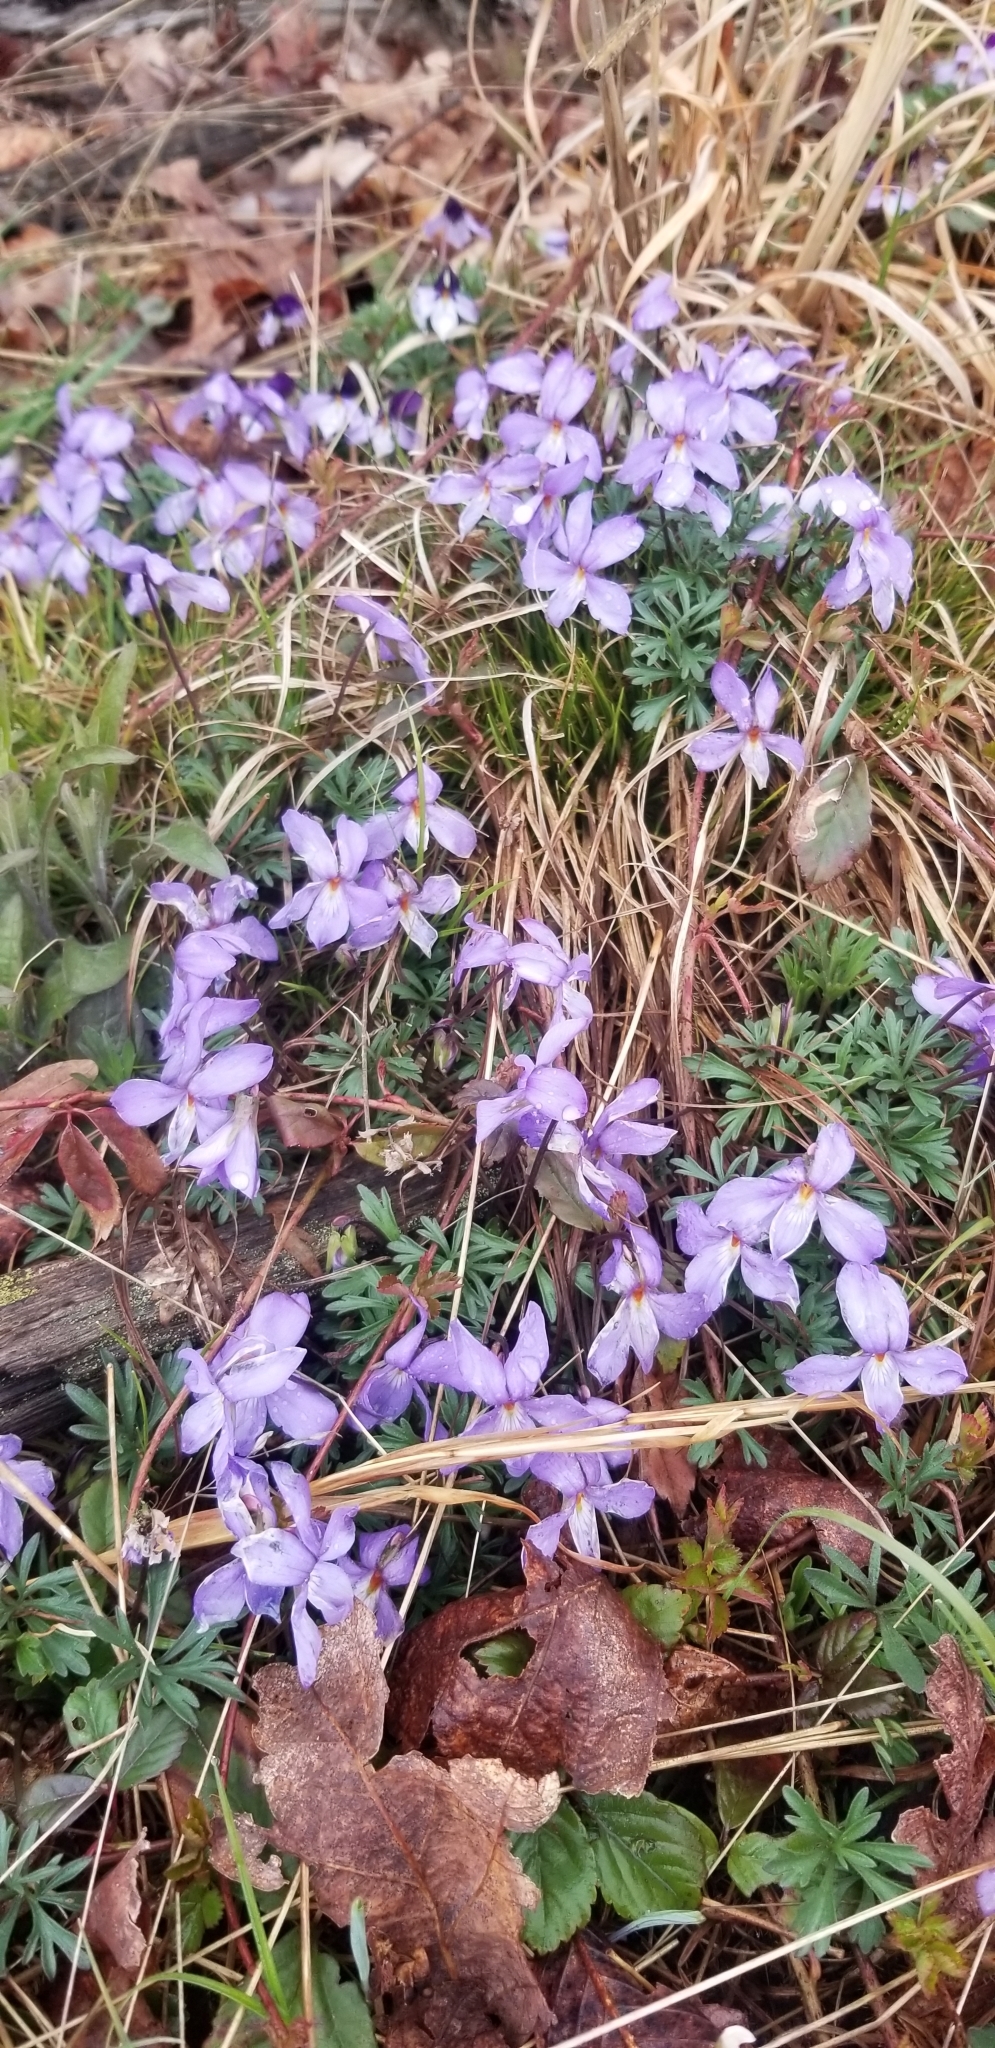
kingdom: Plantae
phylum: Tracheophyta
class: Magnoliopsida
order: Malpighiales
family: Violaceae
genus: Viola
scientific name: Viola pedata
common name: Pansy violet
